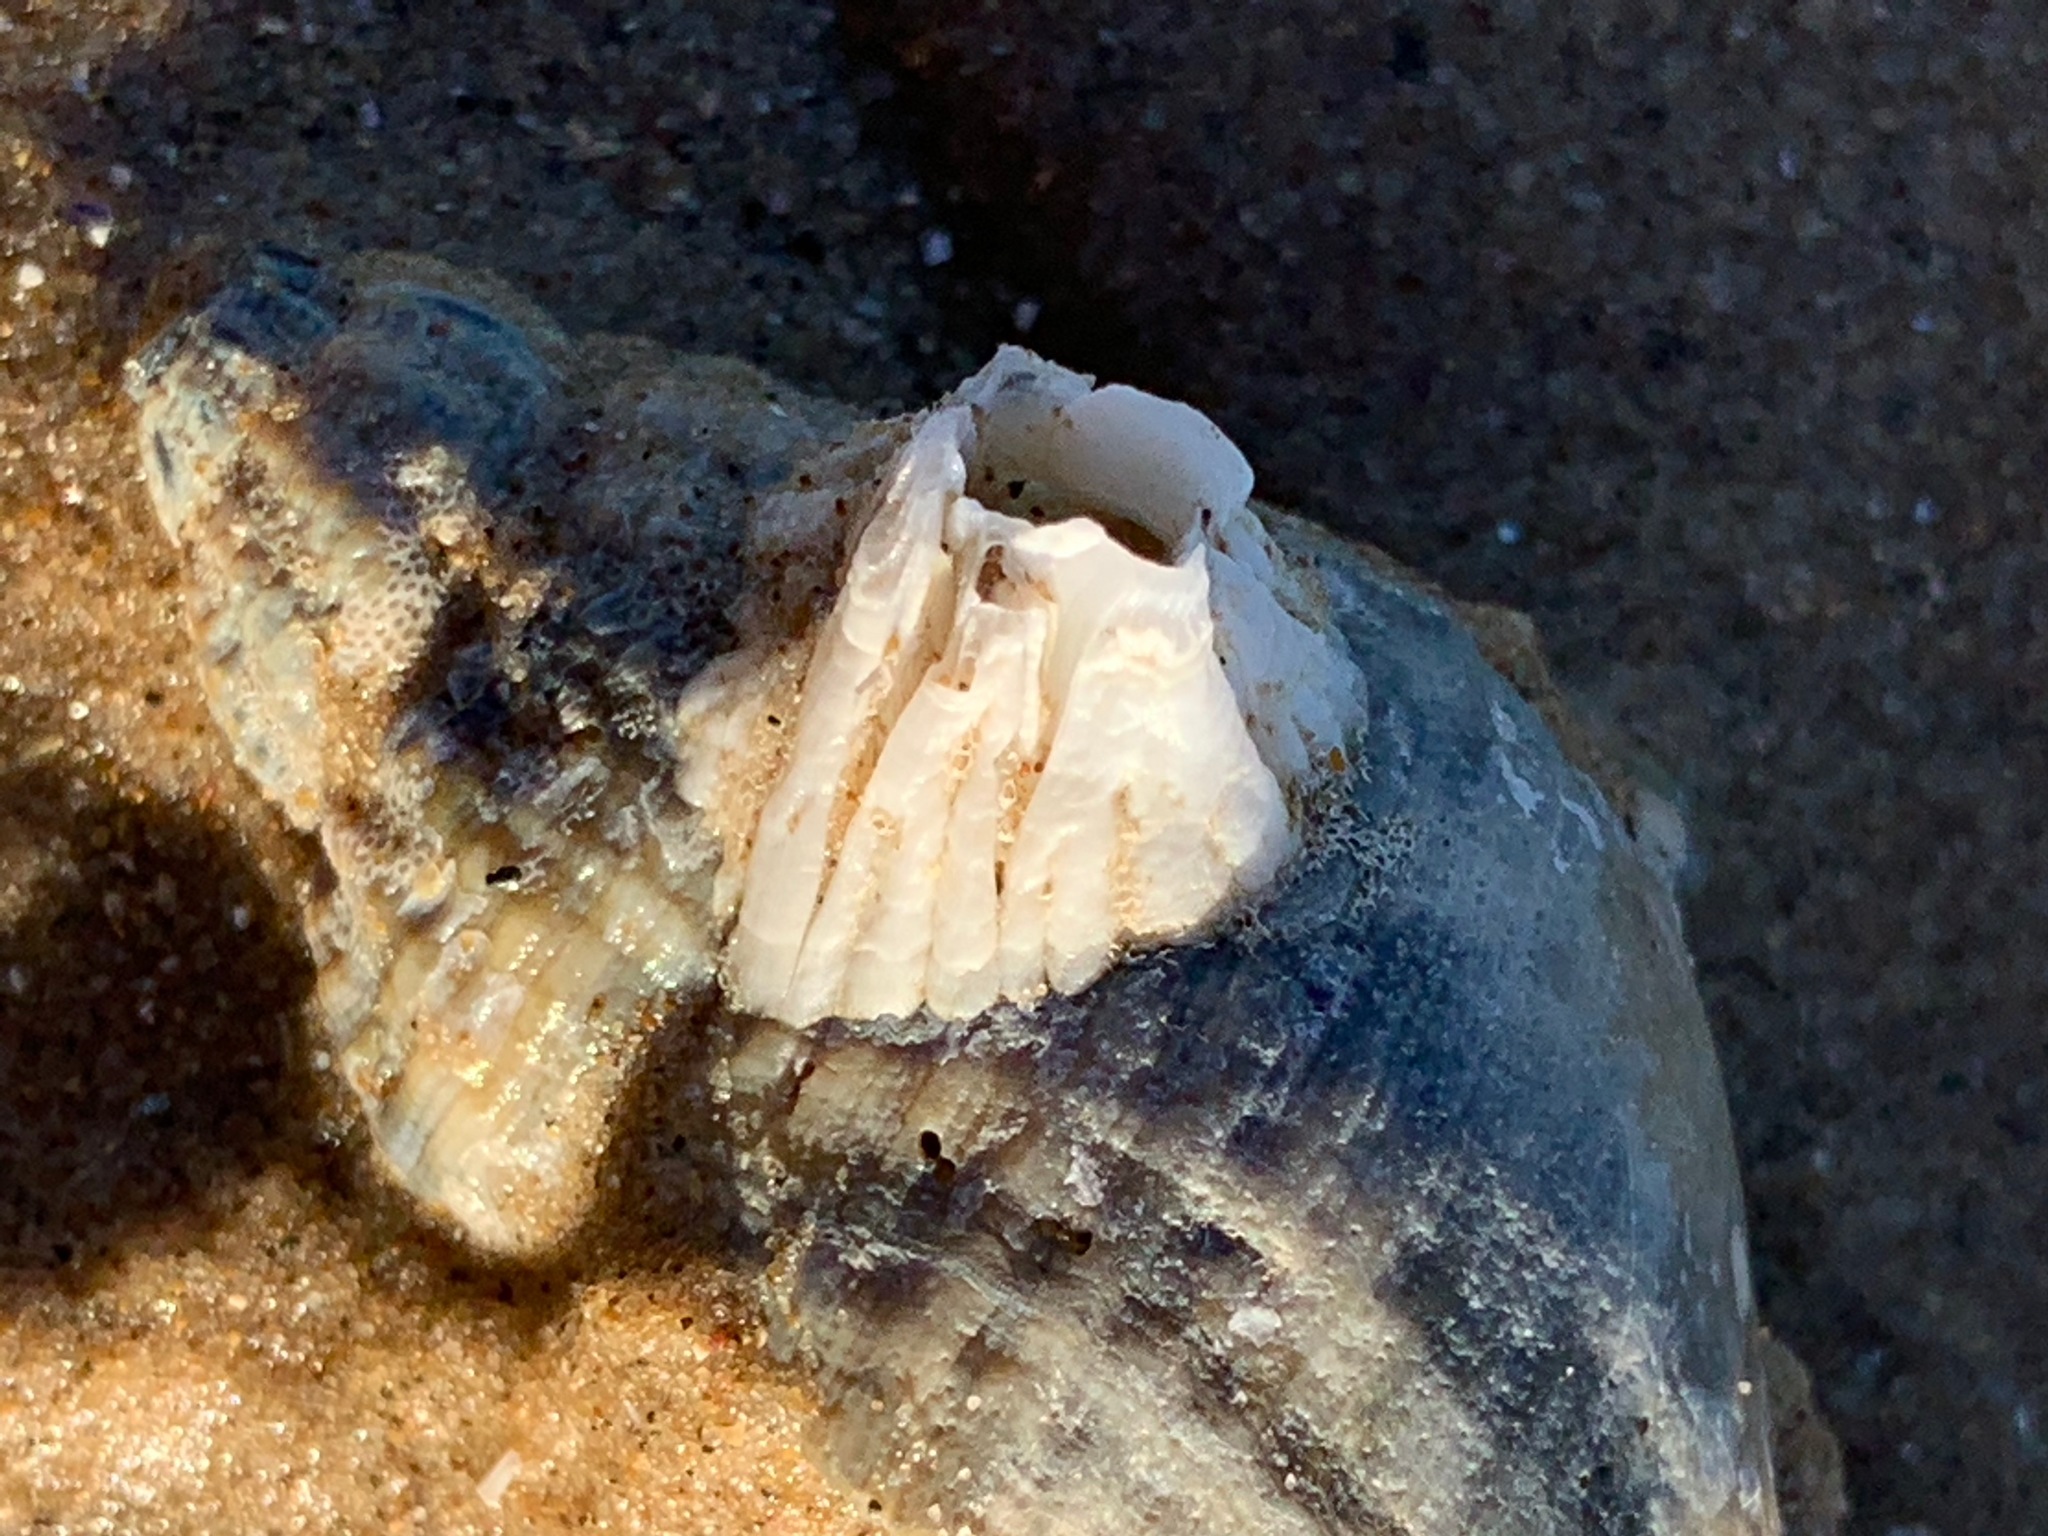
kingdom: Animalia
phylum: Arthropoda
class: Maxillopoda
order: Sessilia
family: Balanidae
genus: Balanus
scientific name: Balanus crenatus
